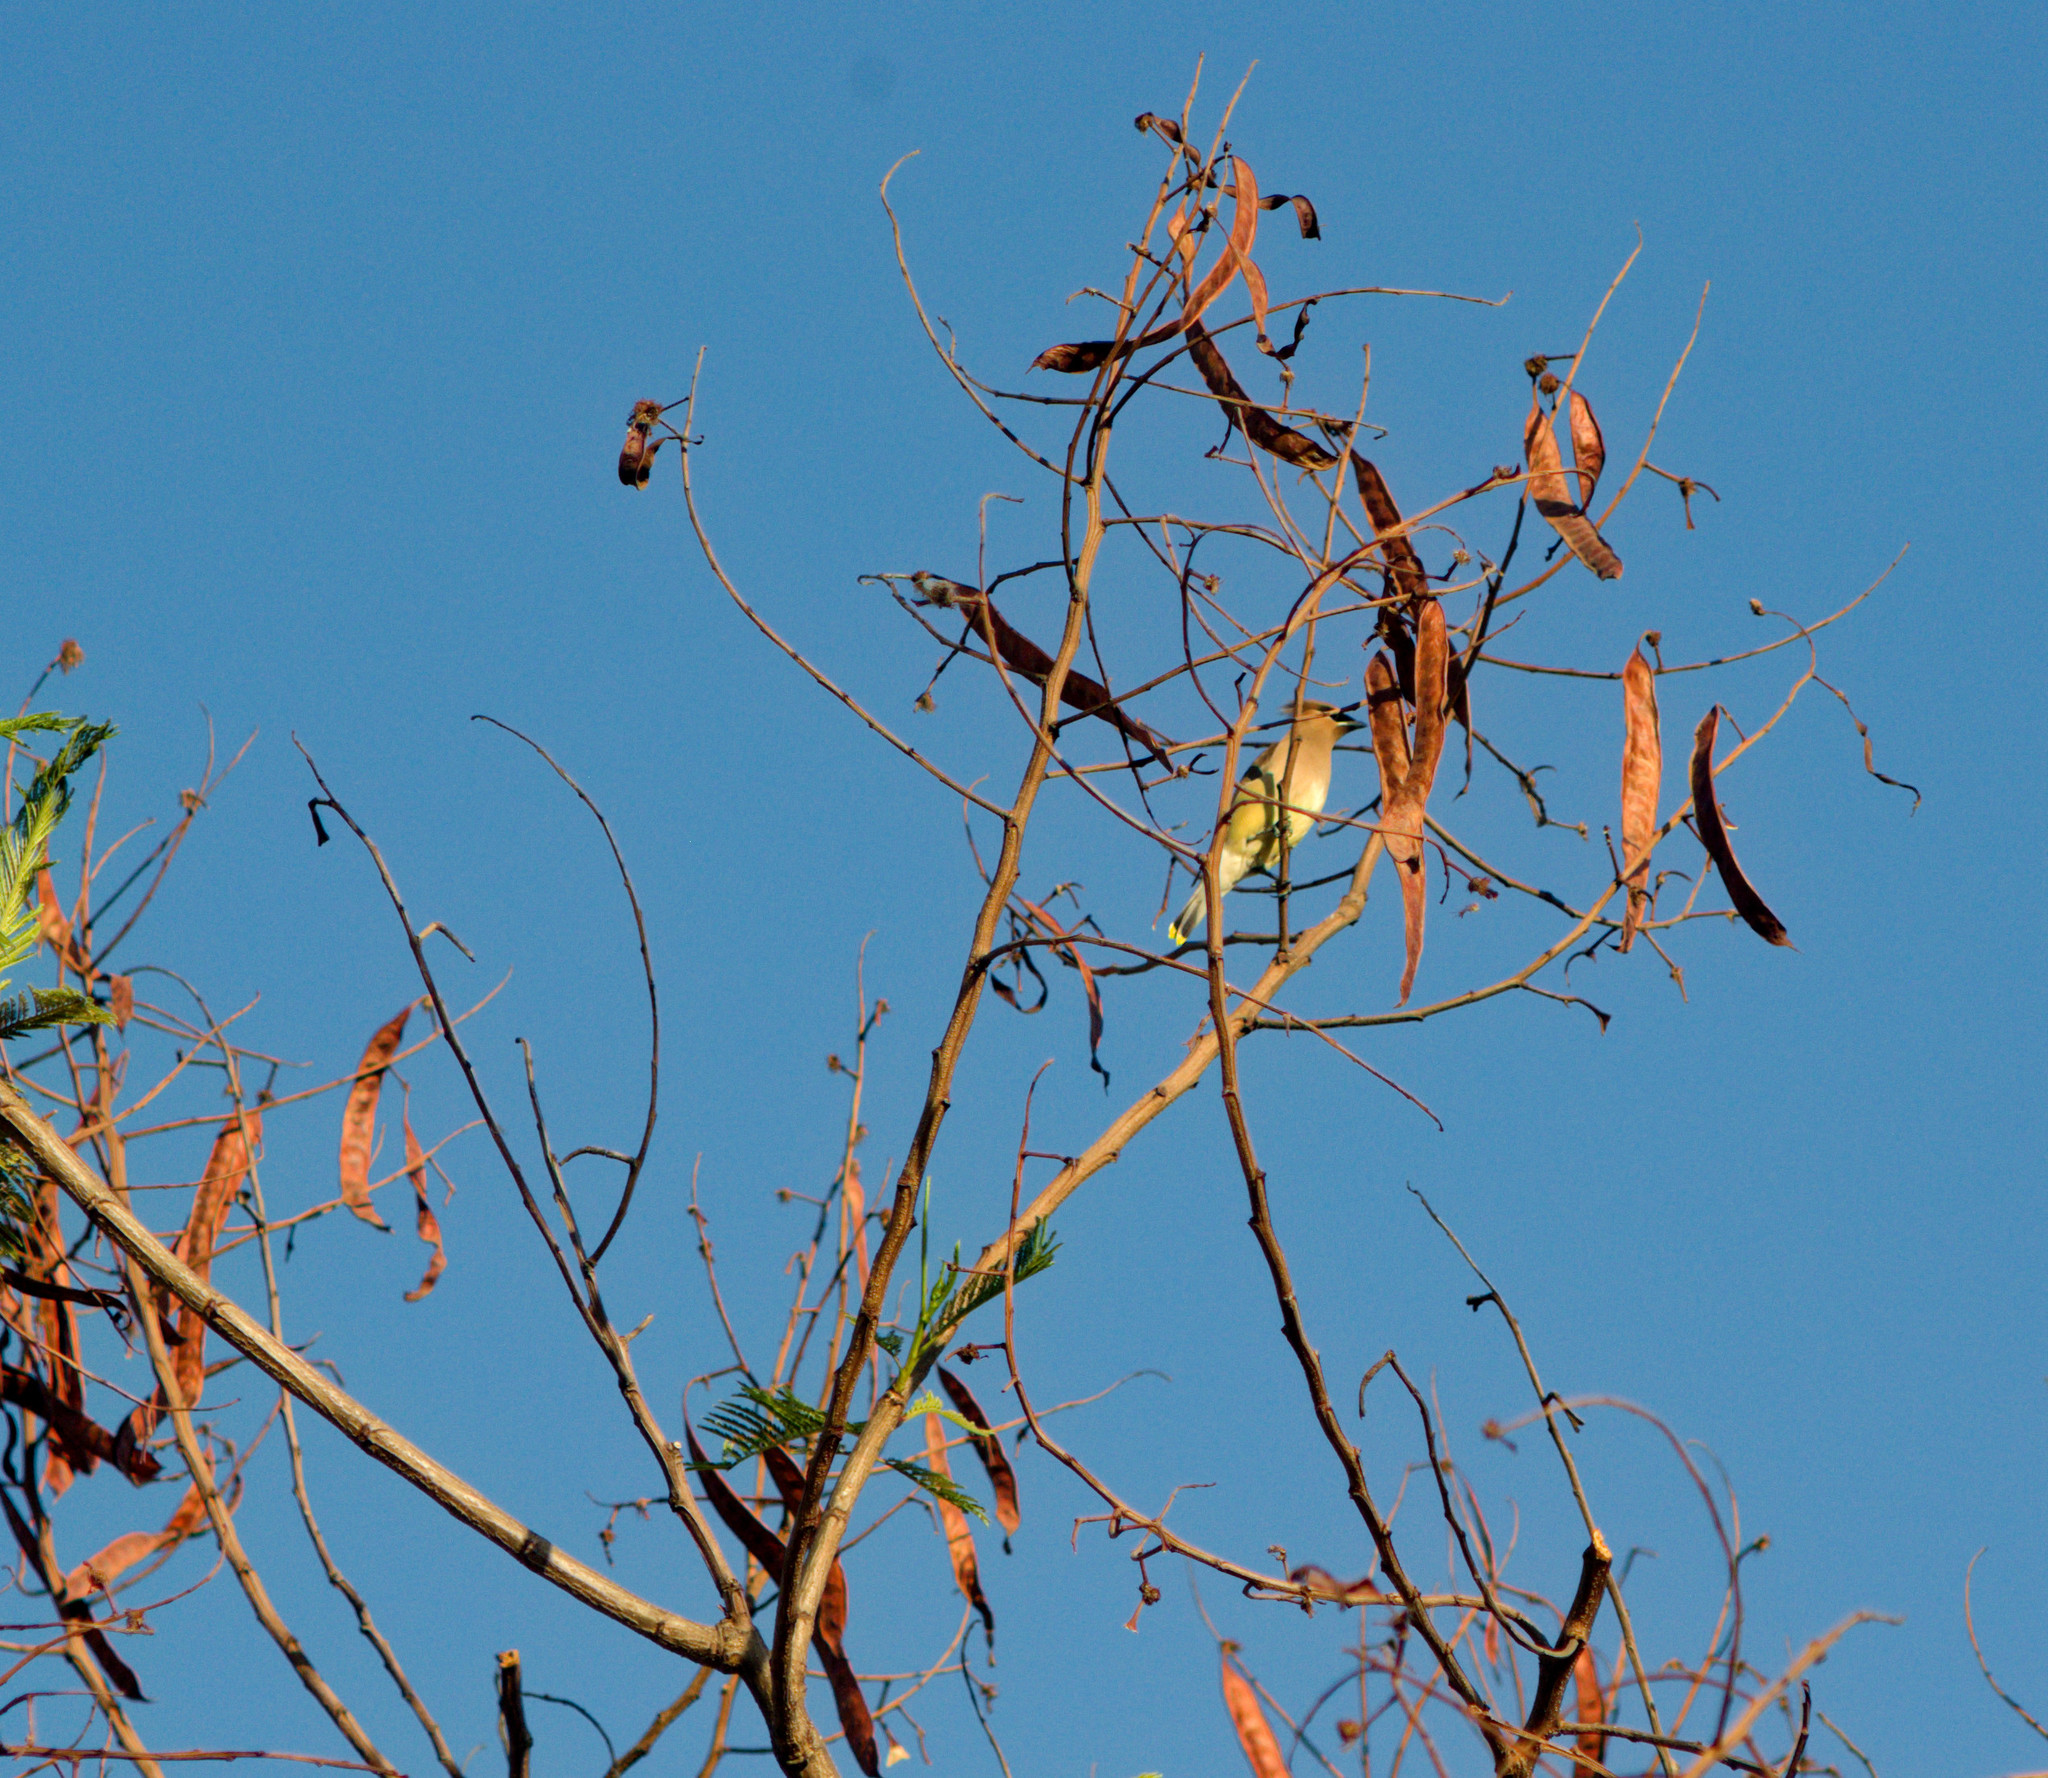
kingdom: Animalia
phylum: Chordata
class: Aves
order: Passeriformes
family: Bombycillidae
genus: Bombycilla
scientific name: Bombycilla cedrorum
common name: Cedar waxwing
